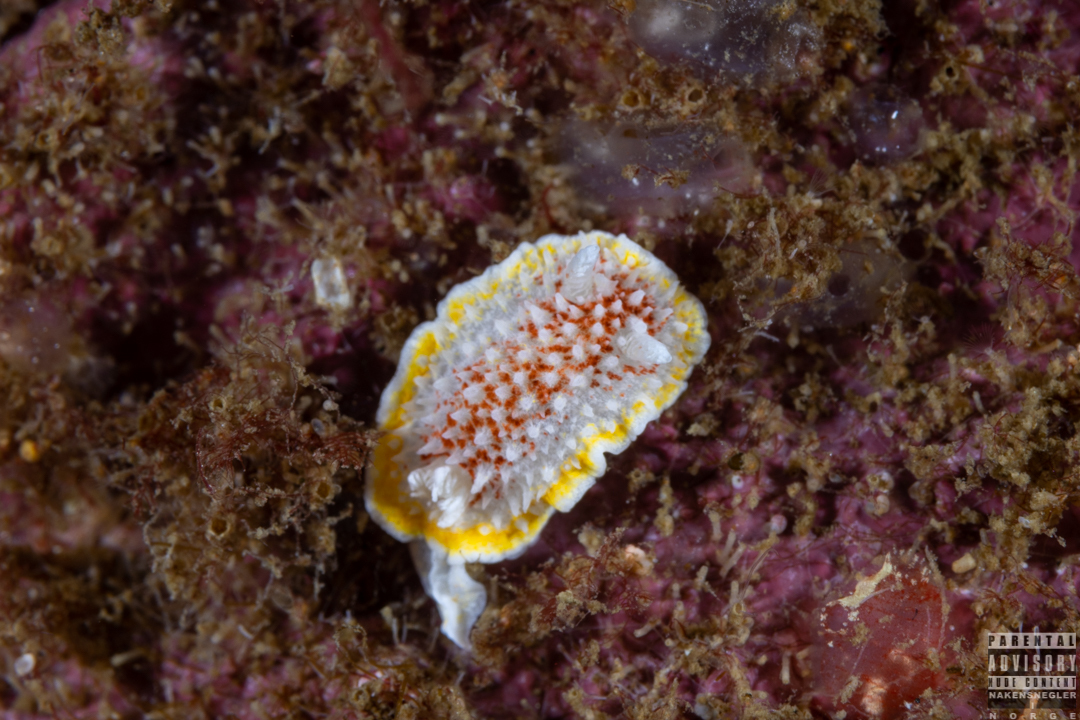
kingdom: Animalia
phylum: Mollusca
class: Gastropoda
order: Nudibranchia
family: Calycidorididae
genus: Diaphorodoris
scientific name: Diaphorodoris luteocincta
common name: Fried egg nudibranch
